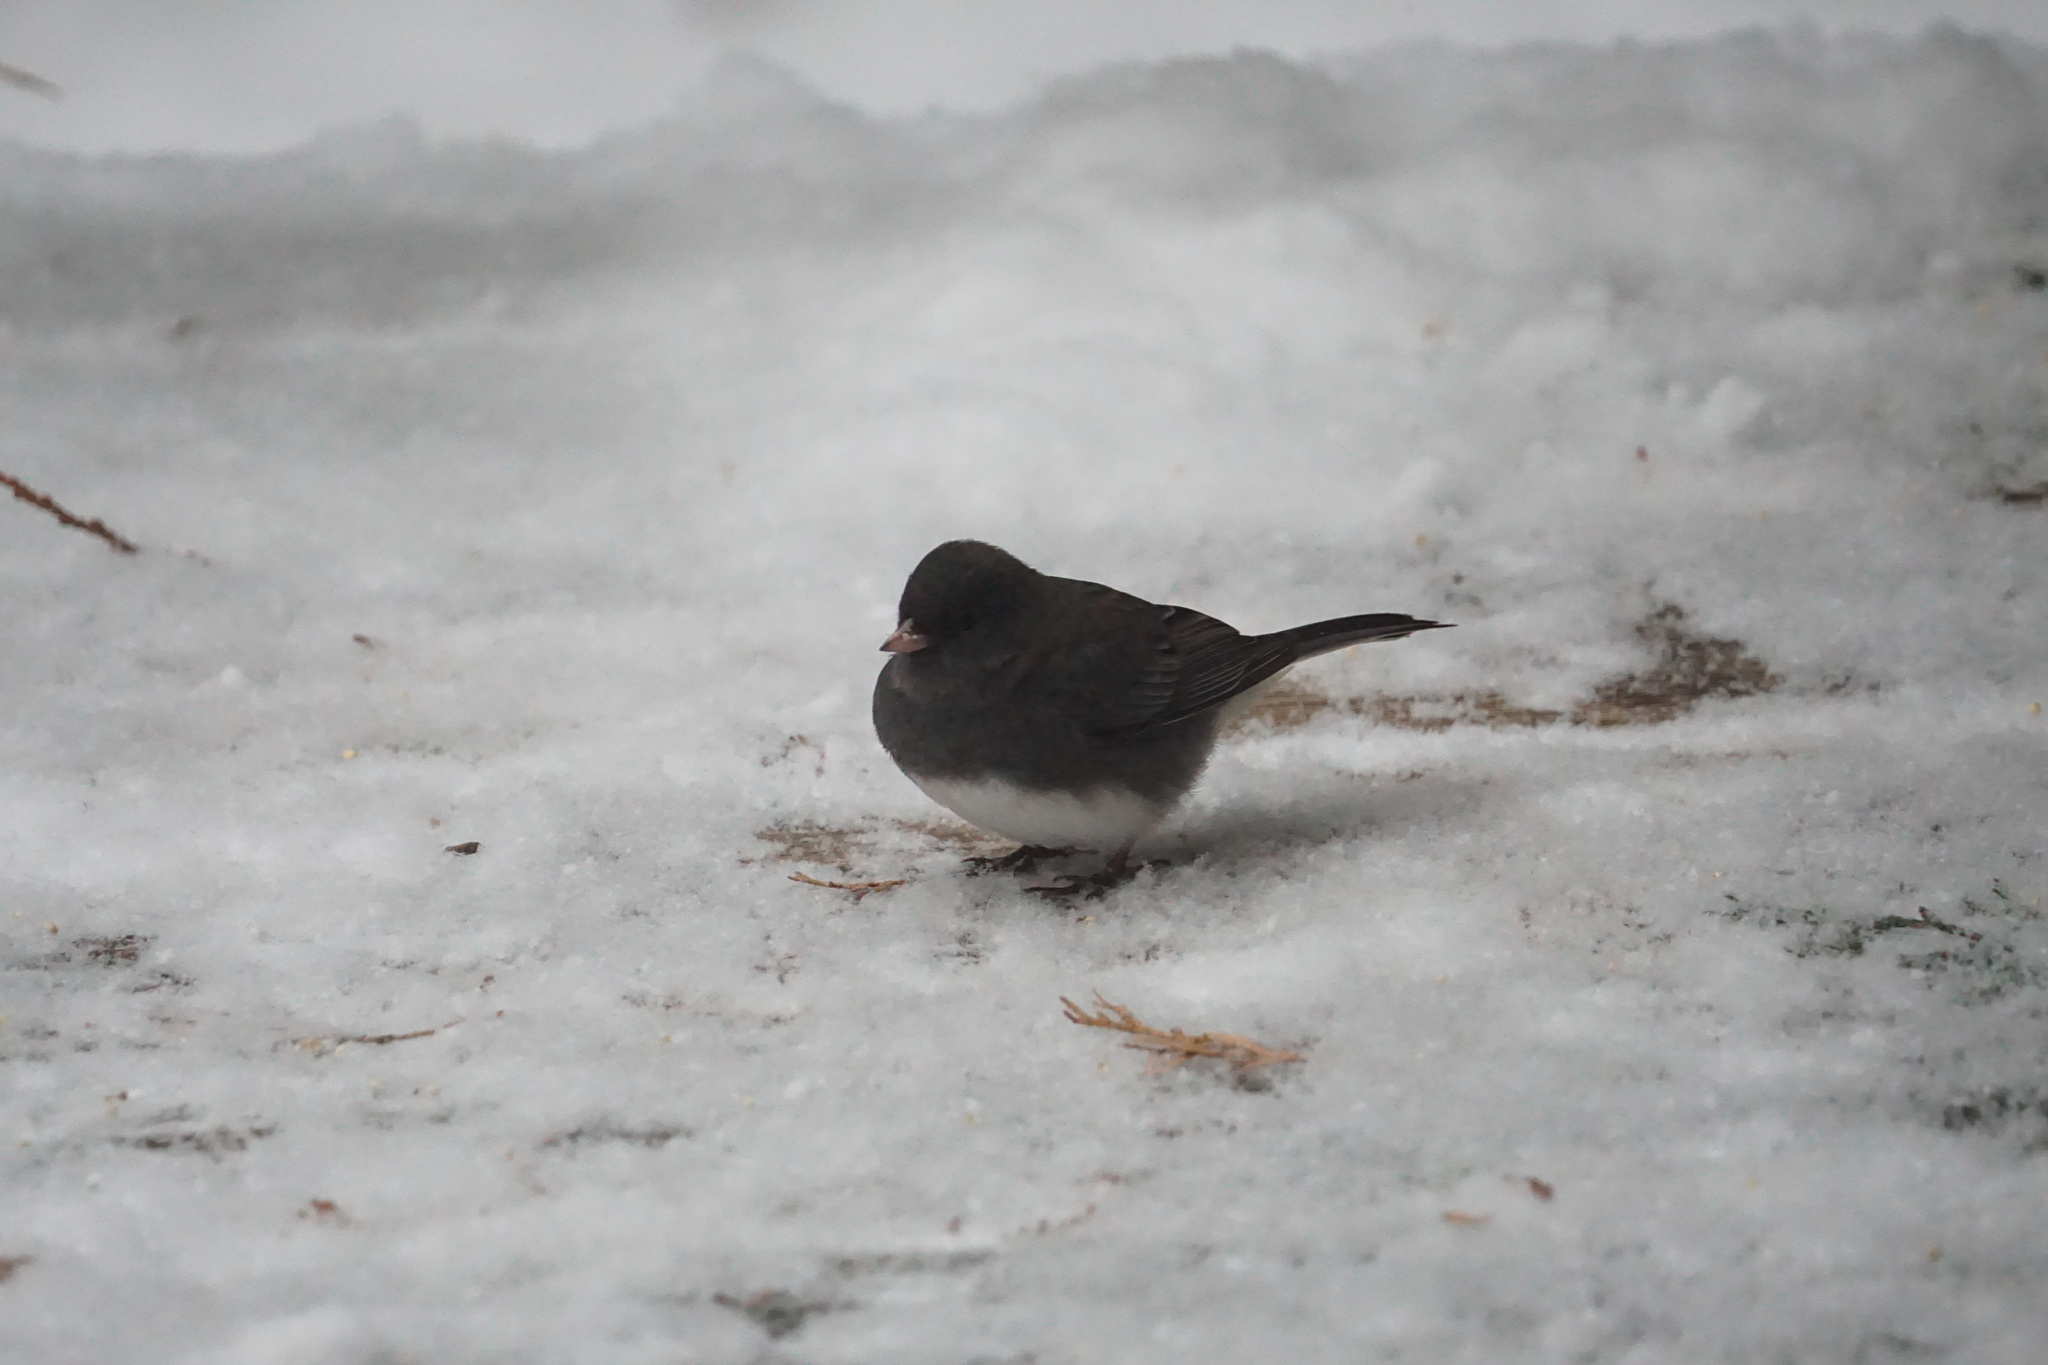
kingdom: Animalia
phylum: Chordata
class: Aves
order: Passeriformes
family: Passerellidae
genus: Junco
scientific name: Junco hyemalis
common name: Dark-eyed junco
